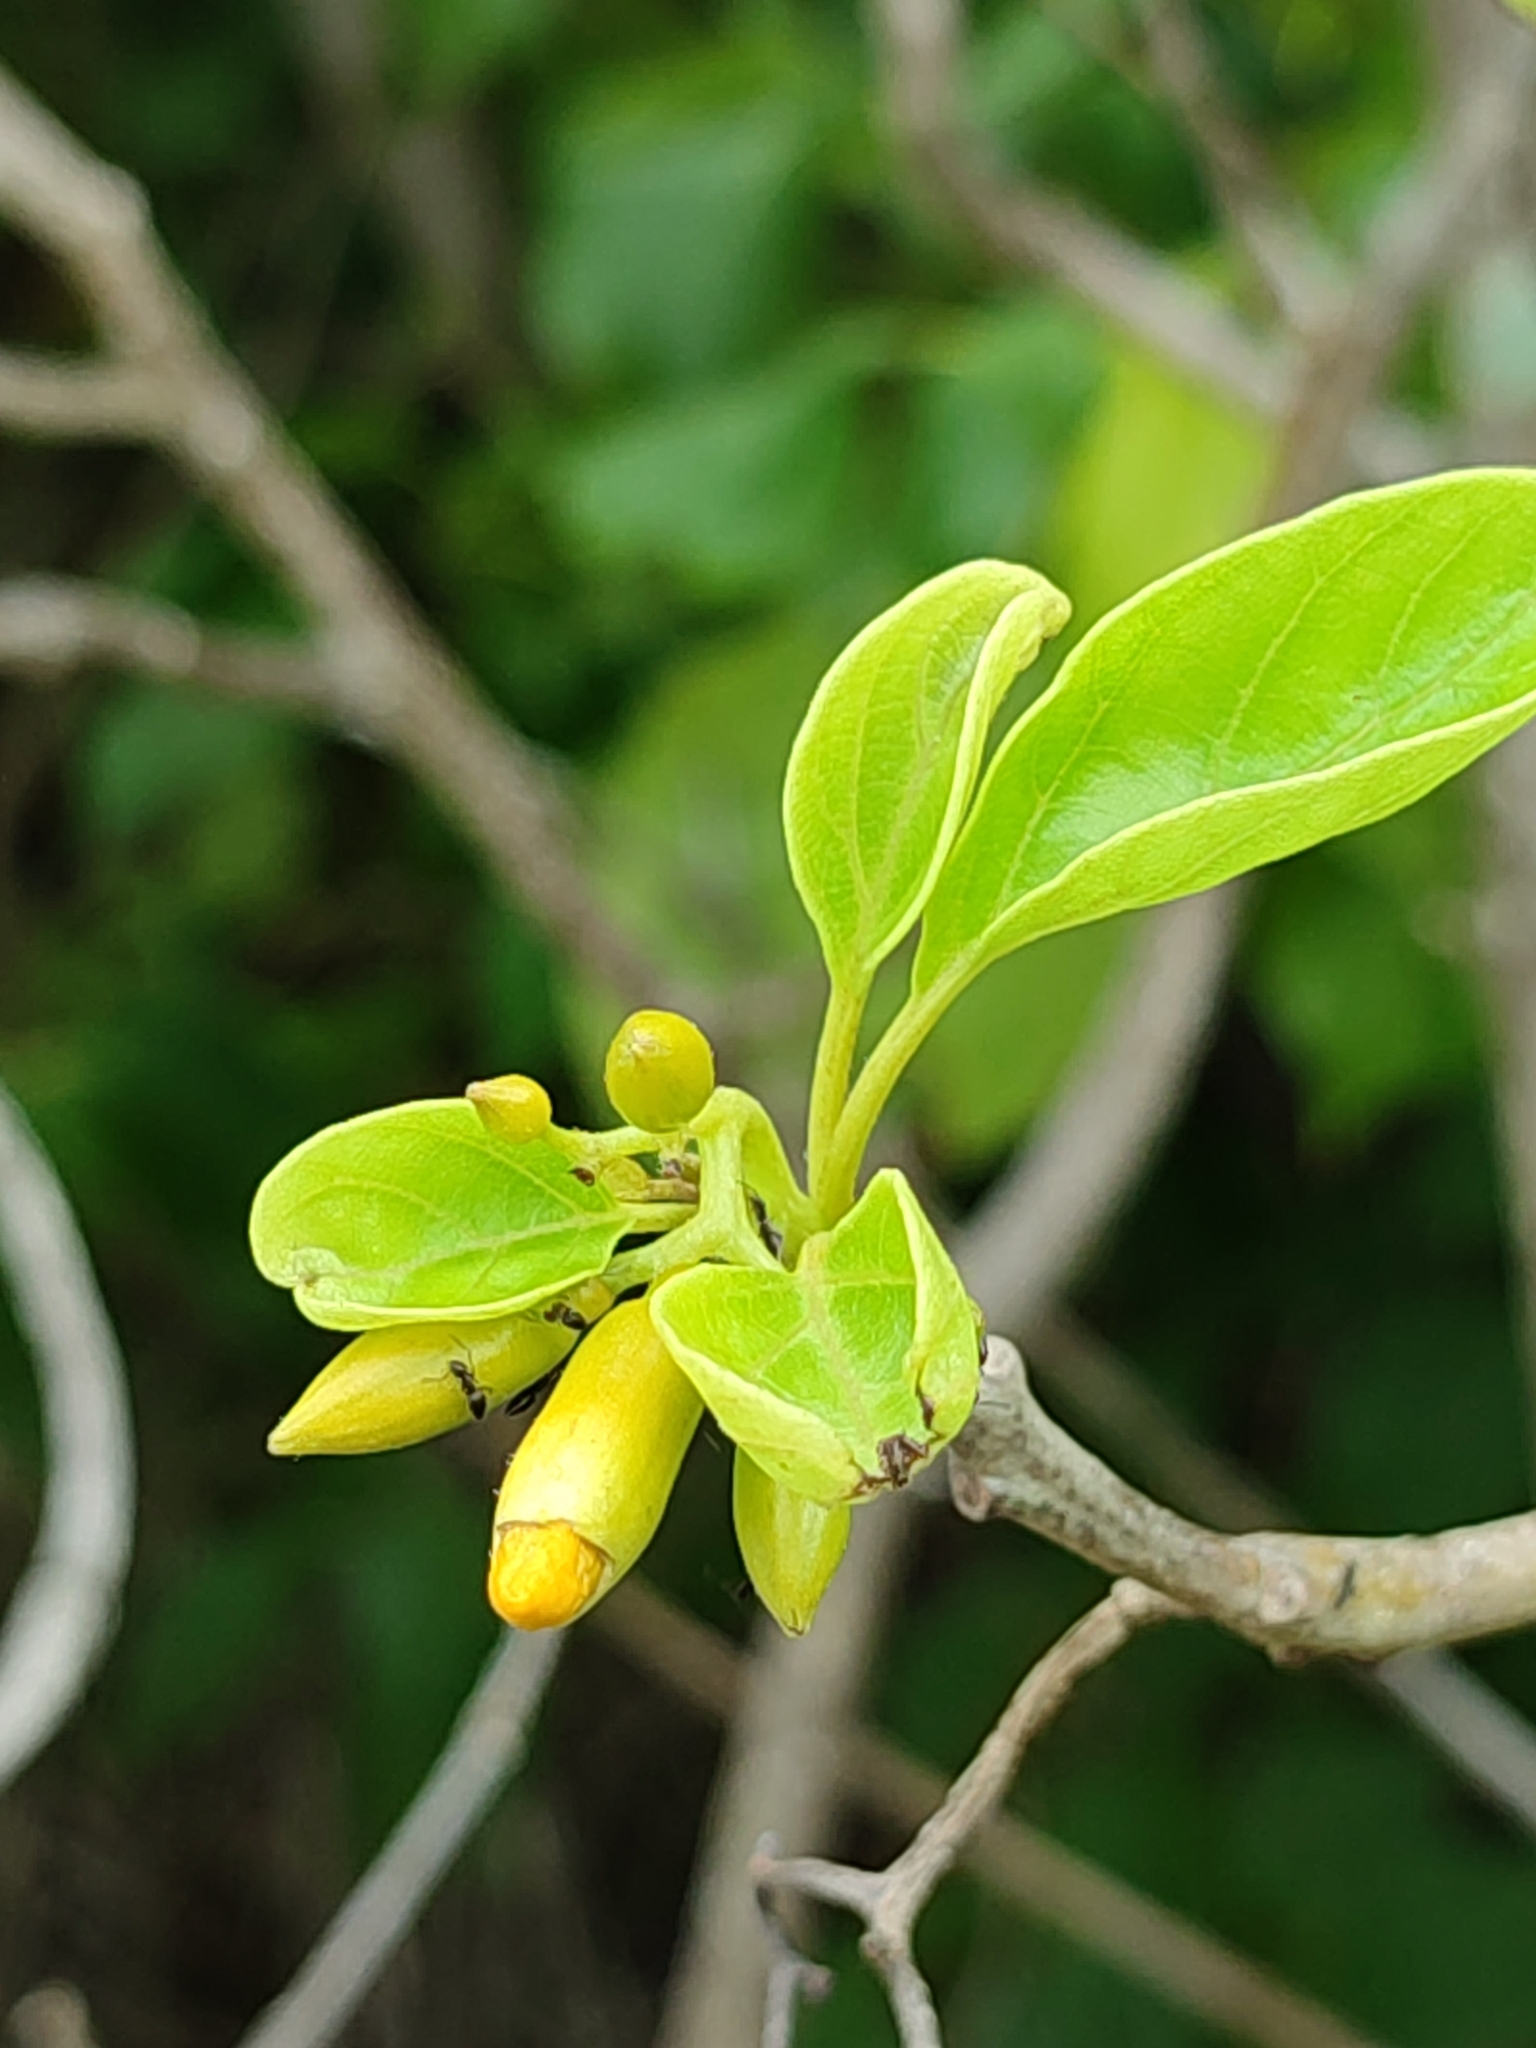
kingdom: Plantae
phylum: Tracheophyta
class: Magnoliopsida
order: Boraginales
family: Cordiaceae
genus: Cordia
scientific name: Cordia subcordata
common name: Mareer
